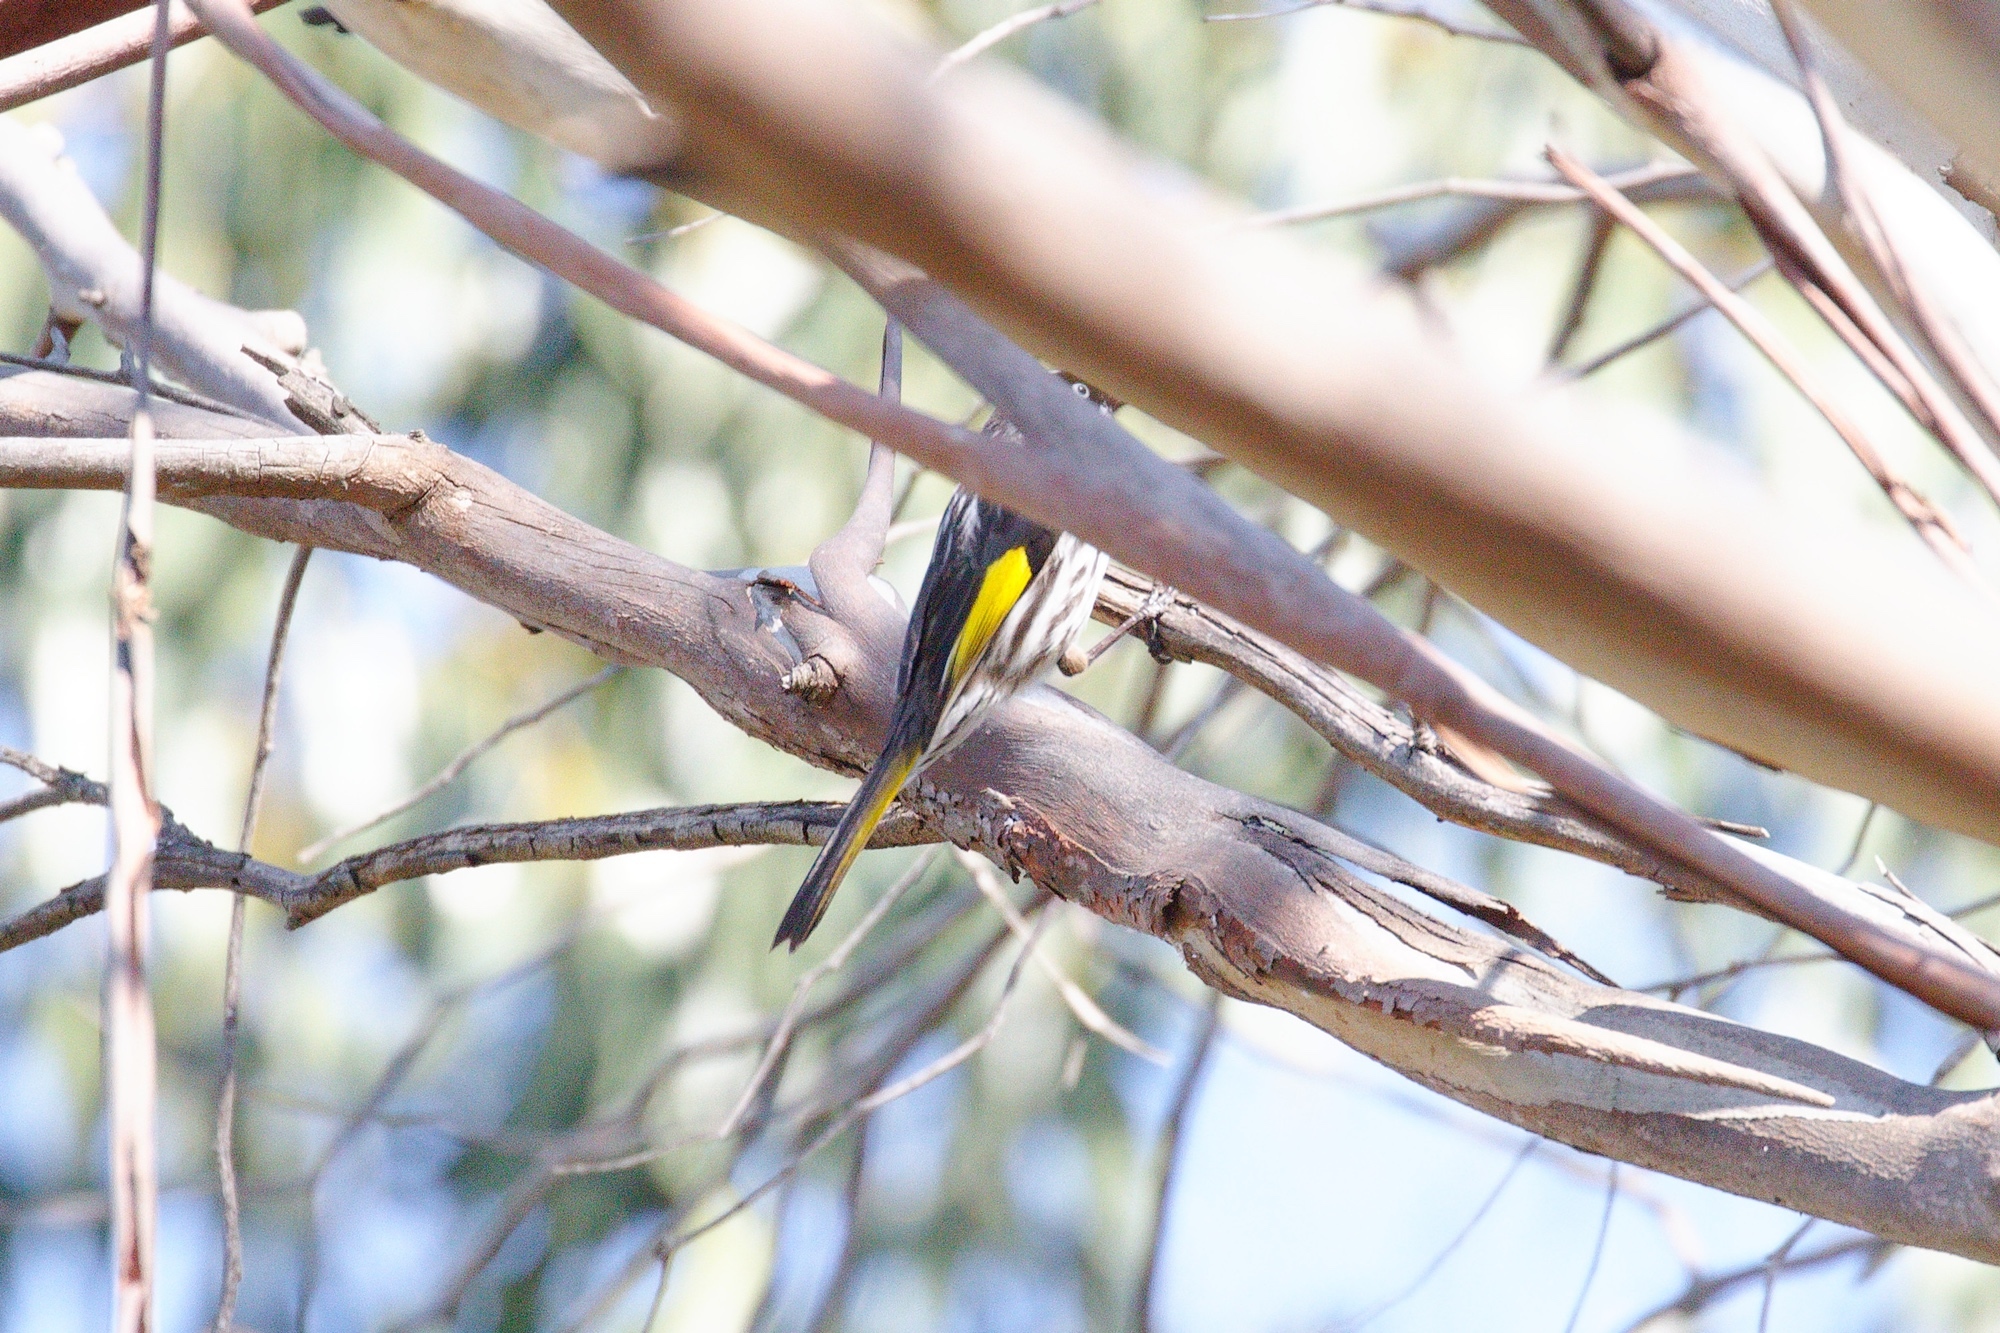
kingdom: Animalia
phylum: Chordata
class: Aves
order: Passeriformes
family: Meliphagidae
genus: Phylidonyris
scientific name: Phylidonyris novaehollandiae
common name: New holland honeyeater
